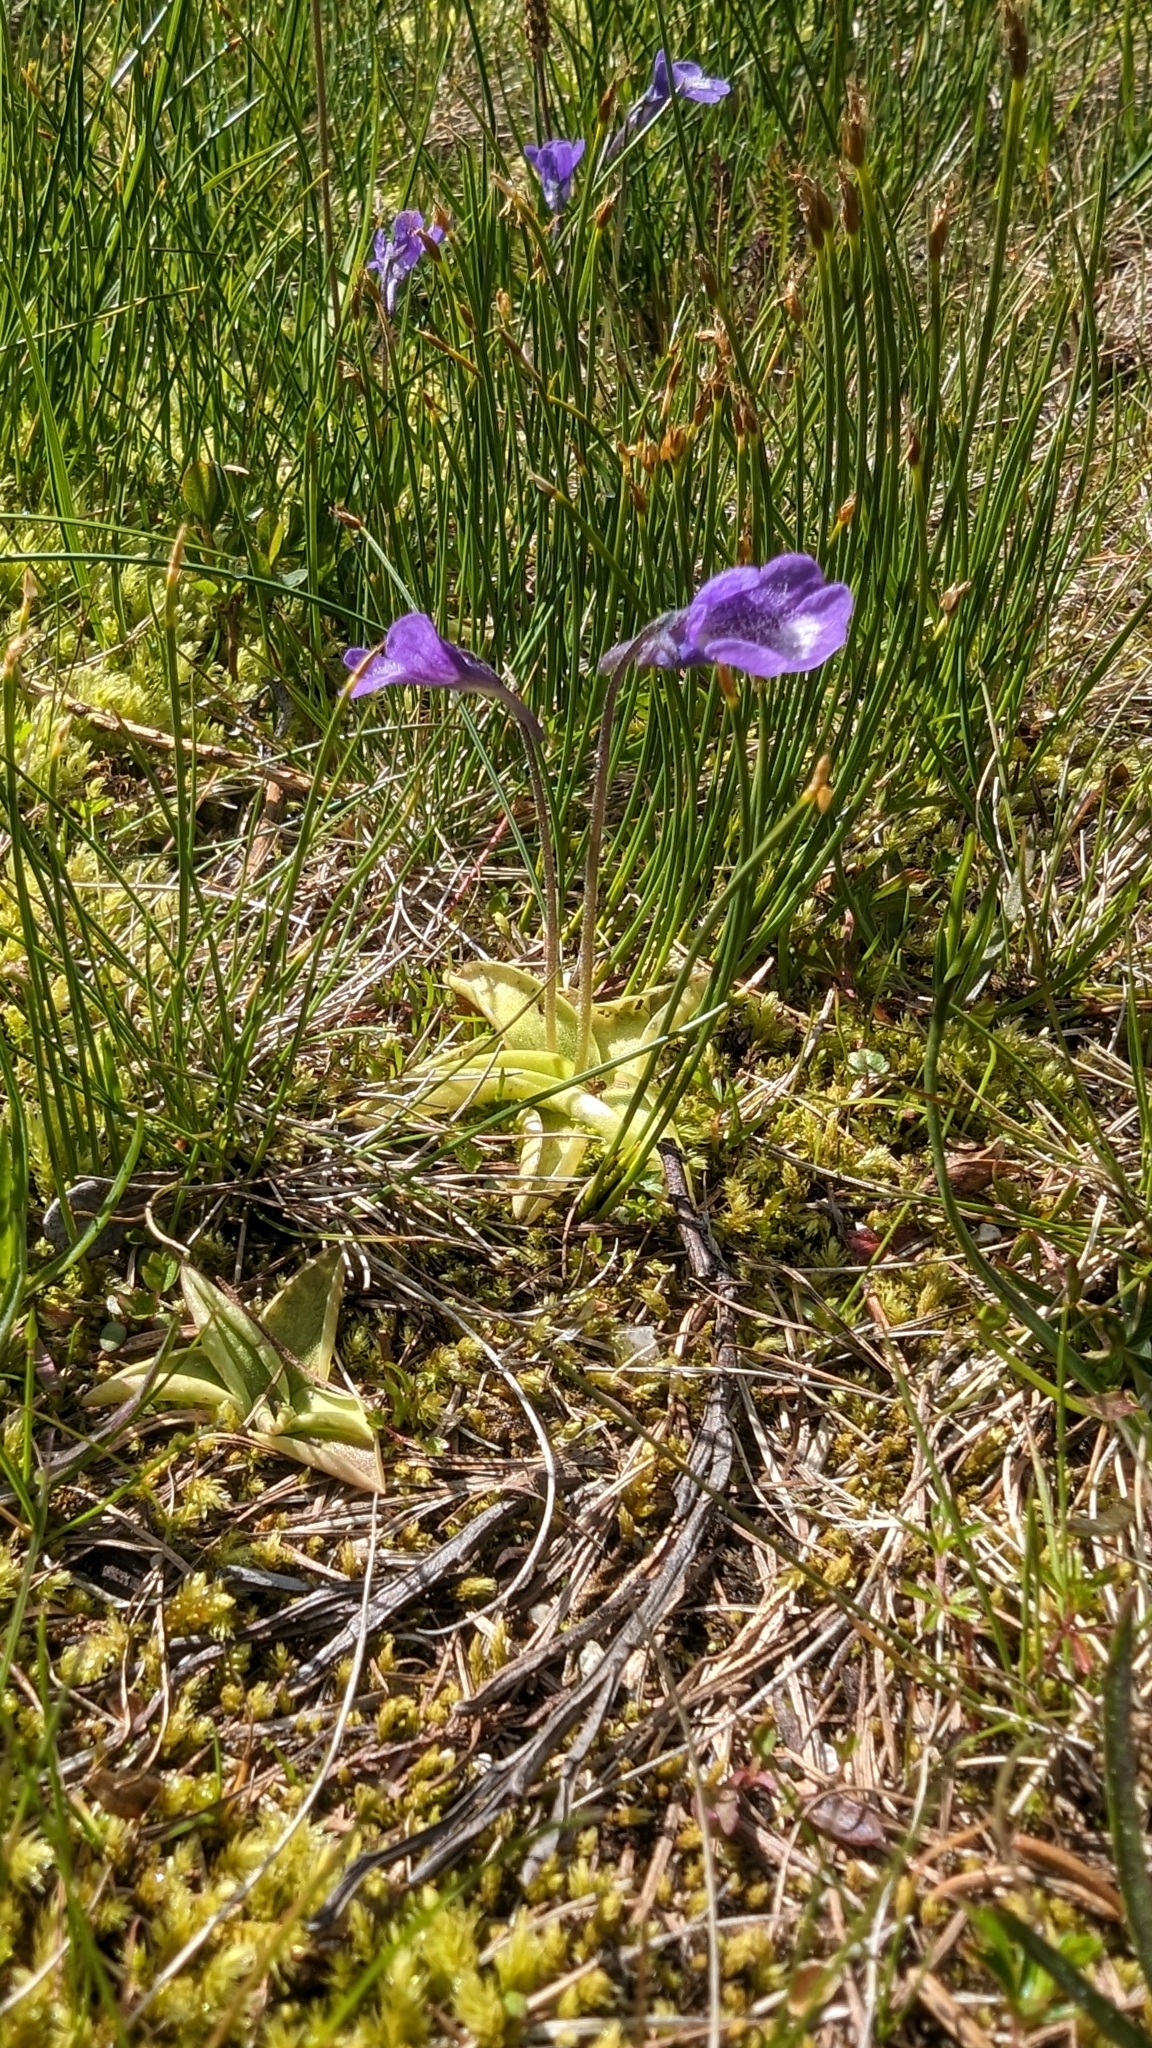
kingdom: Plantae
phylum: Tracheophyta
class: Magnoliopsida
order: Lamiales
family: Lentibulariaceae
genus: Pinguicula
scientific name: Pinguicula leptoceras
